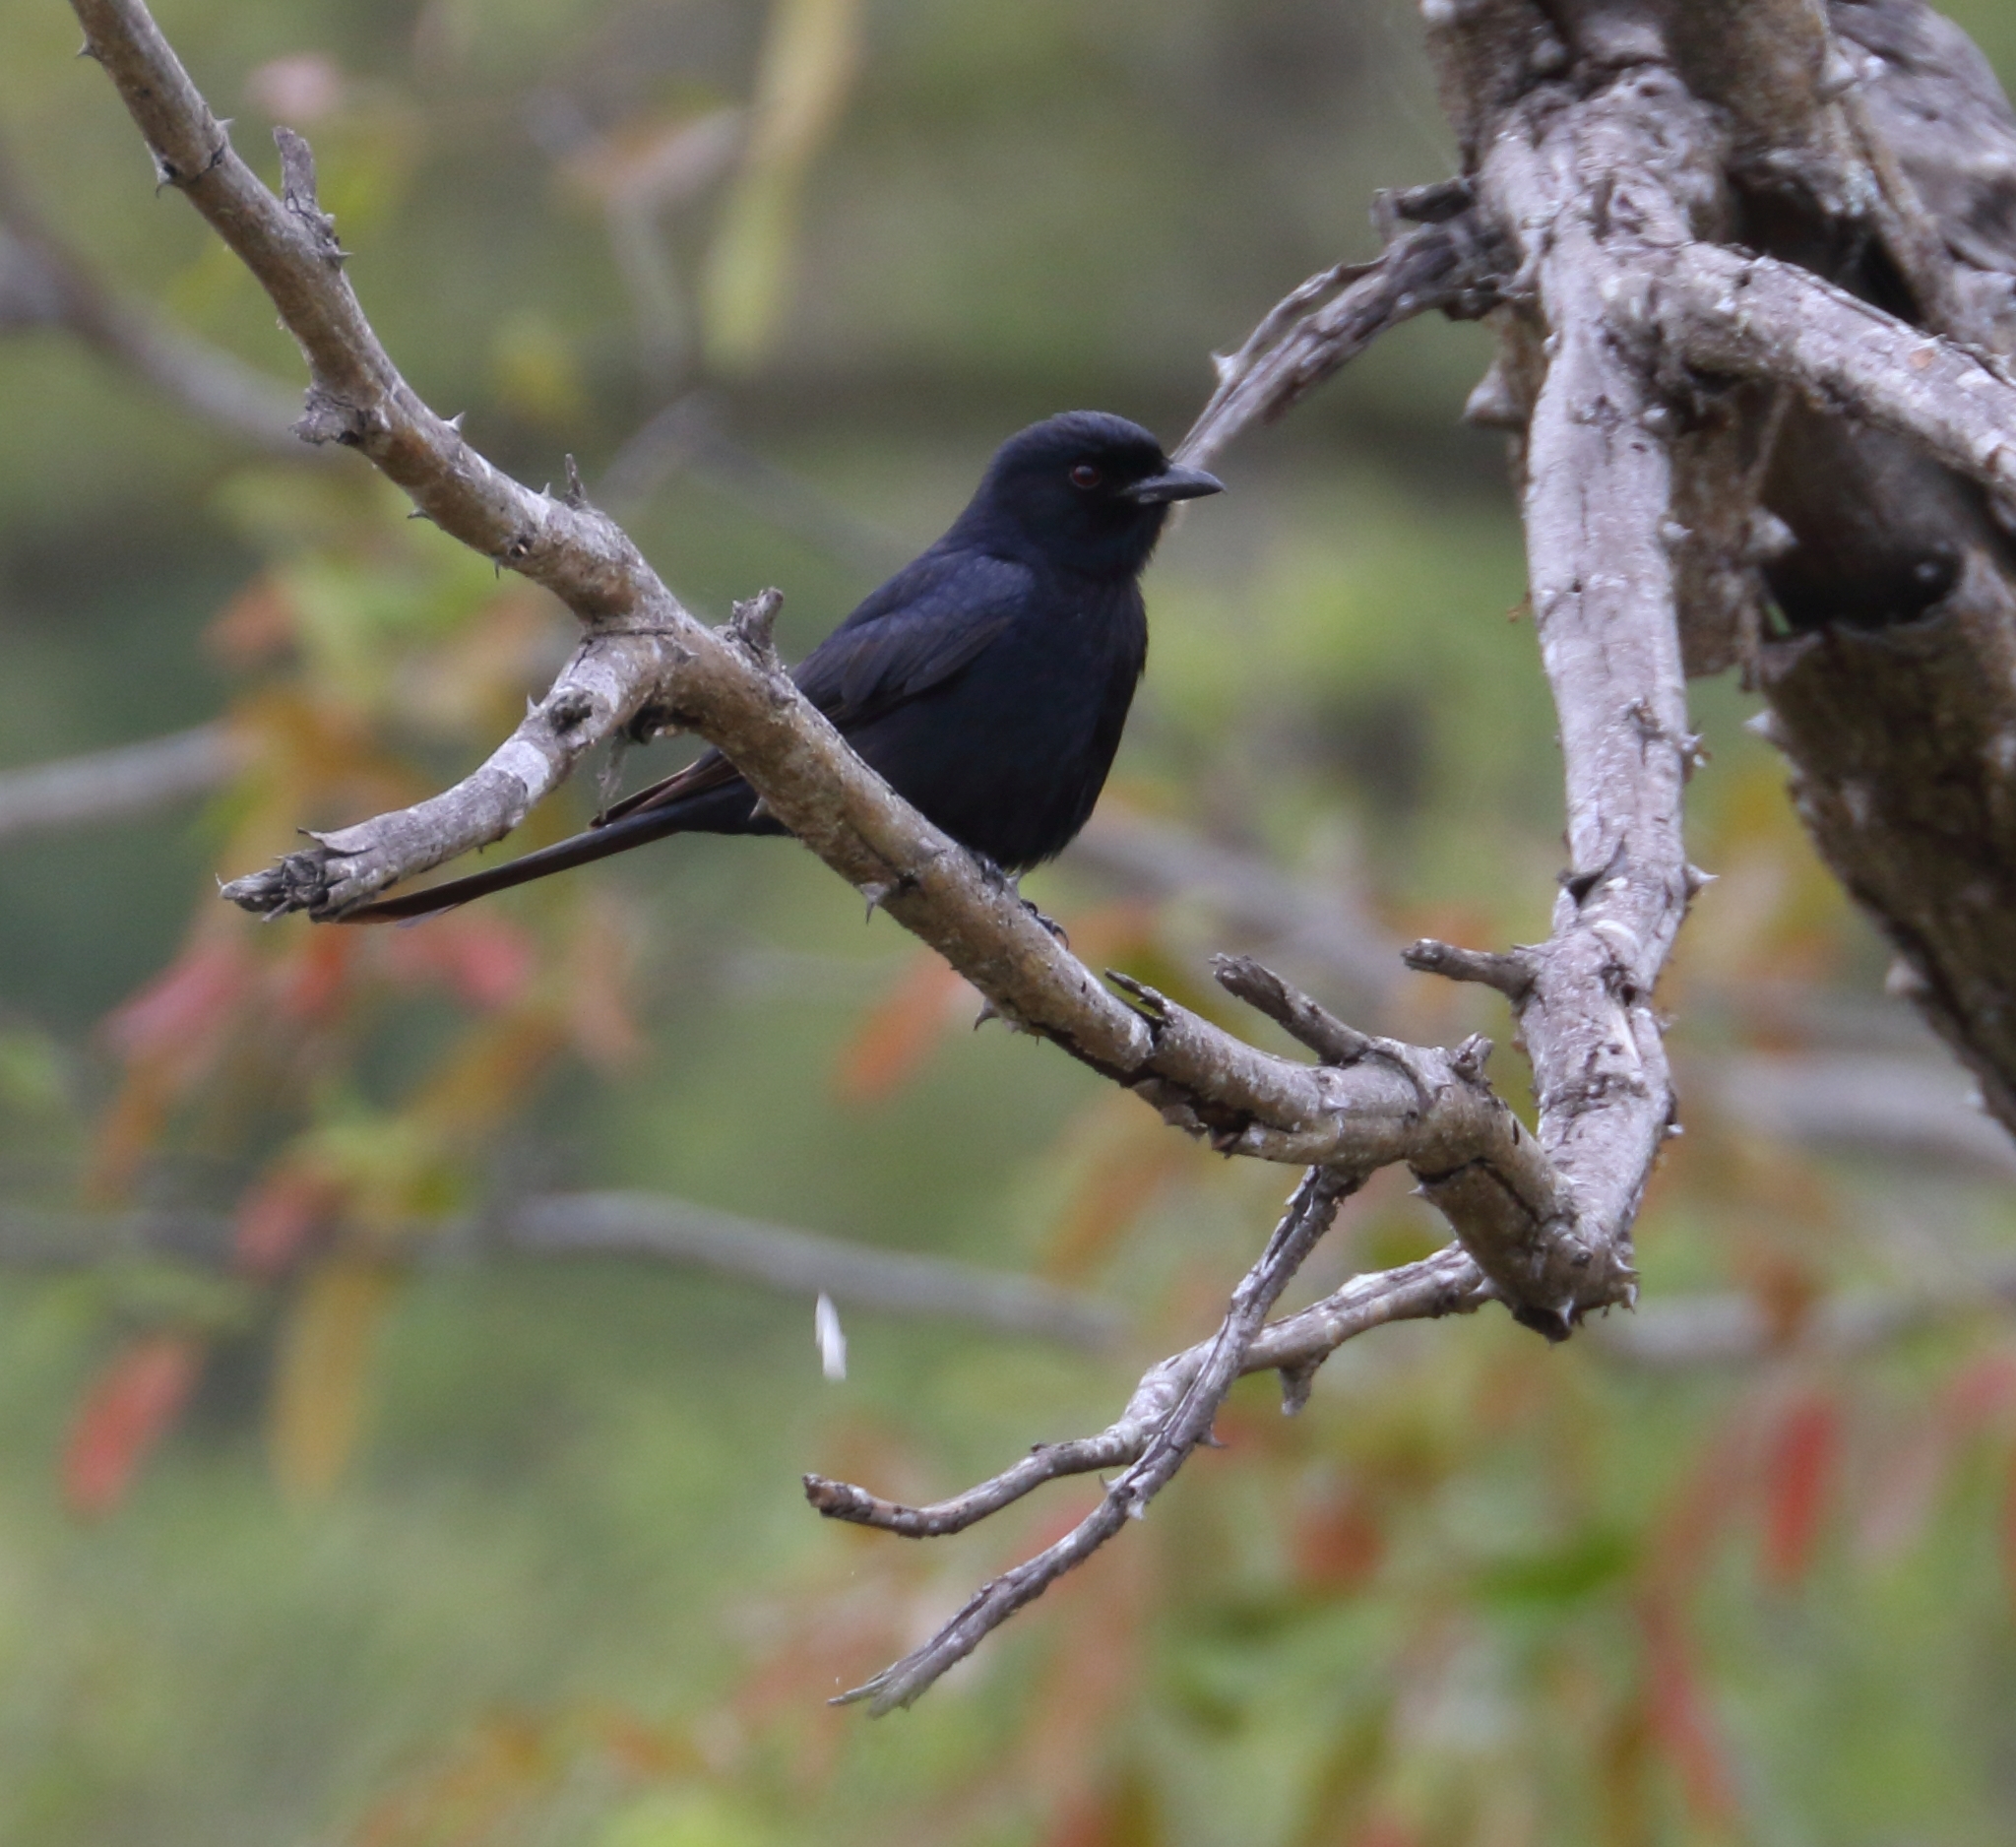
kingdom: Animalia
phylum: Chordata
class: Aves
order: Passeriformes
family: Dicruridae
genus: Dicrurus
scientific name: Dicrurus adsimilis
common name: Fork-tailed drongo
